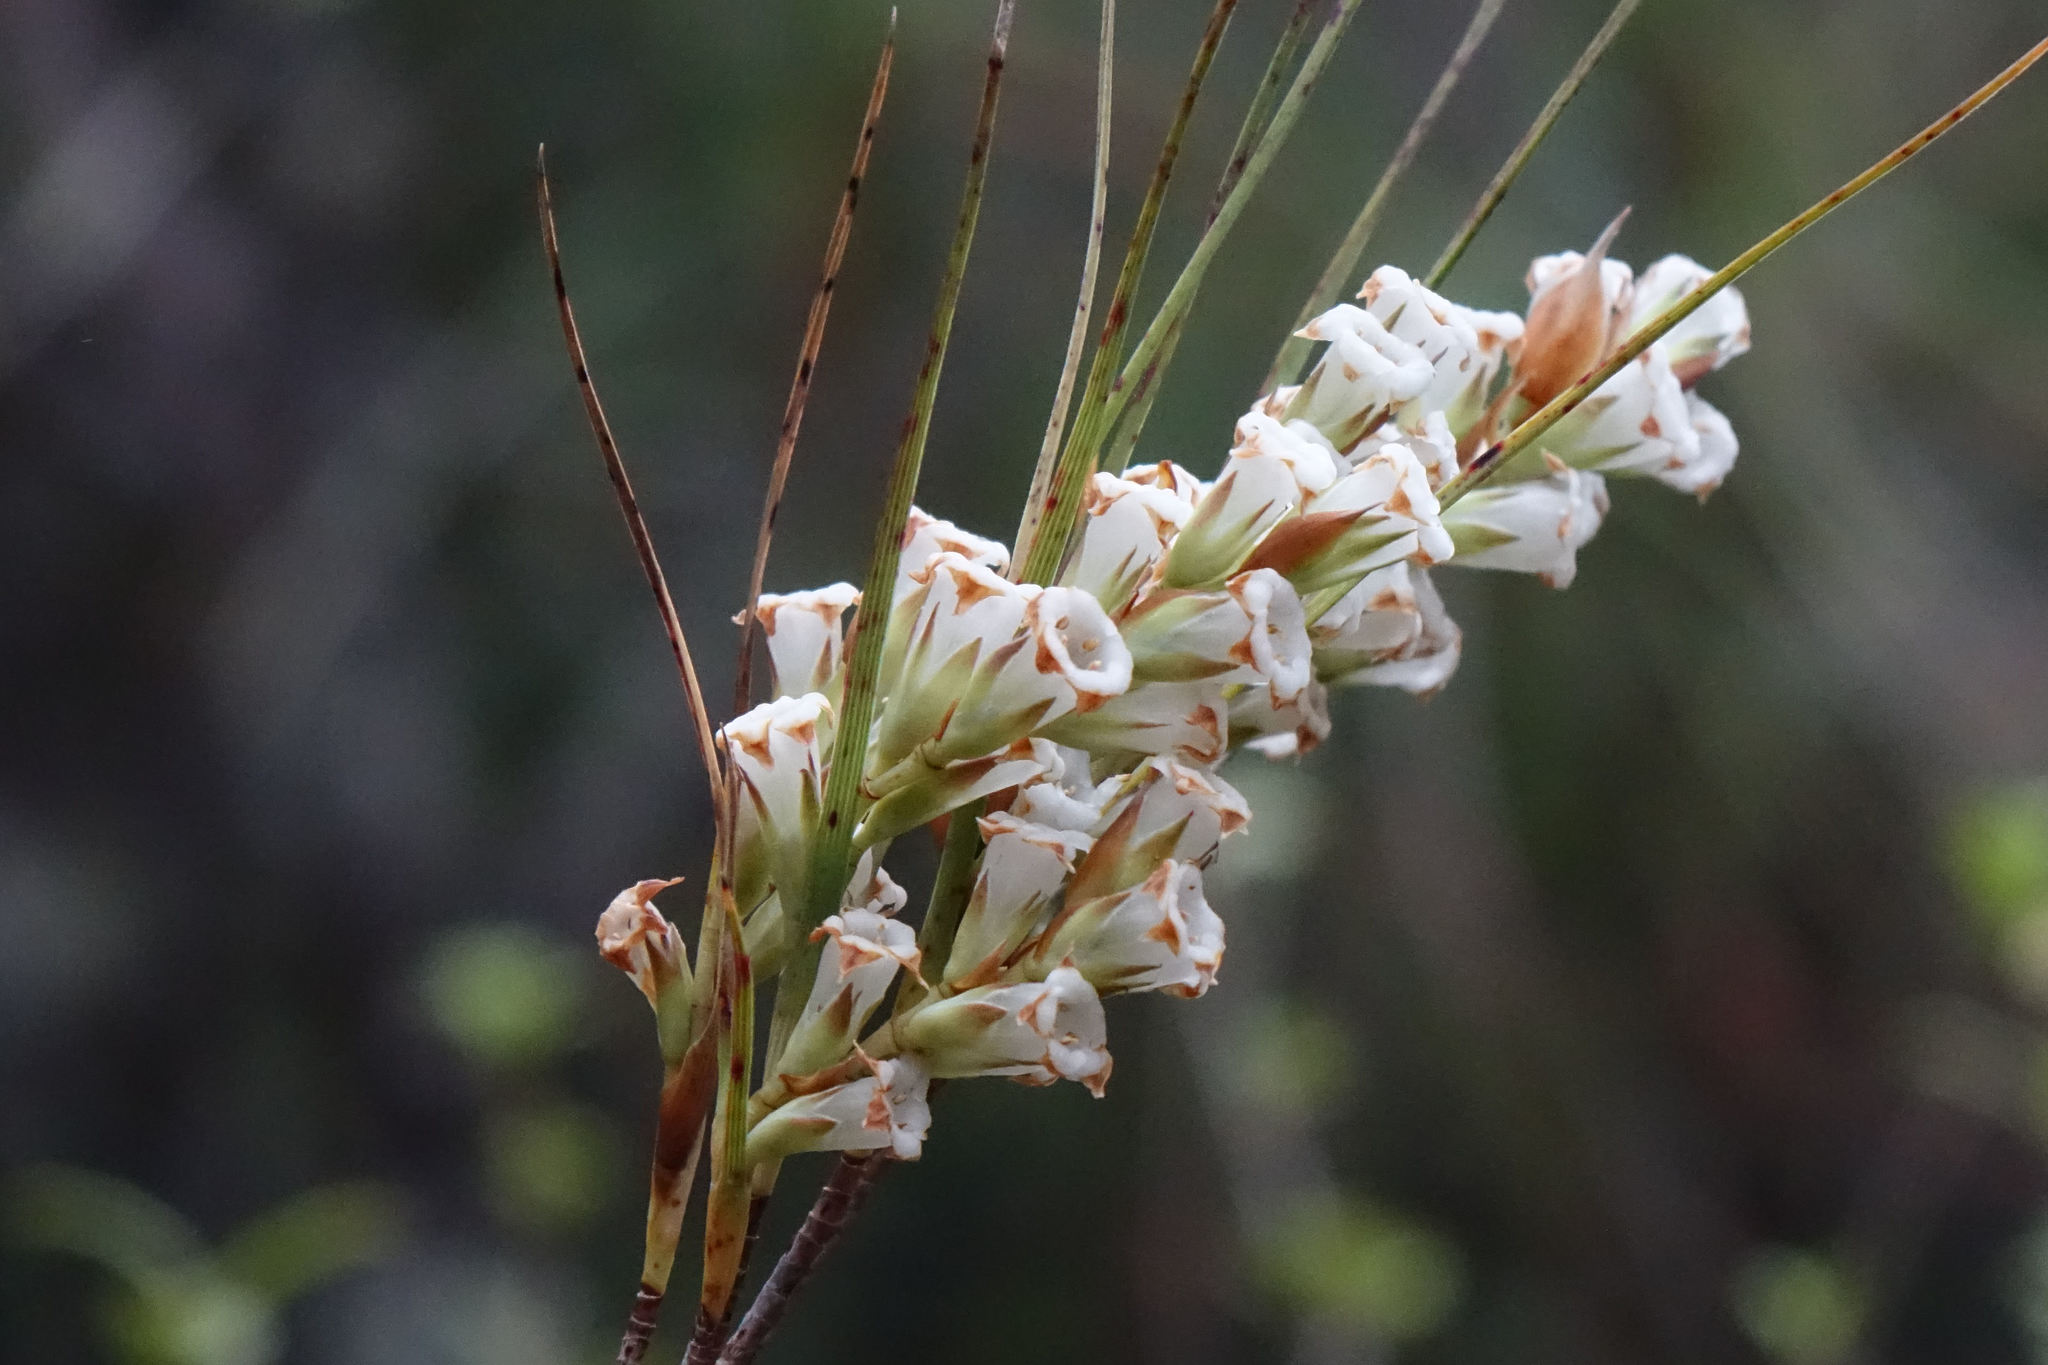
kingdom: Plantae
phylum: Tracheophyta
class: Magnoliopsida
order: Ericales
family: Ericaceae
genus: Dracophyllum
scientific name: Dracophyllum longifolium
